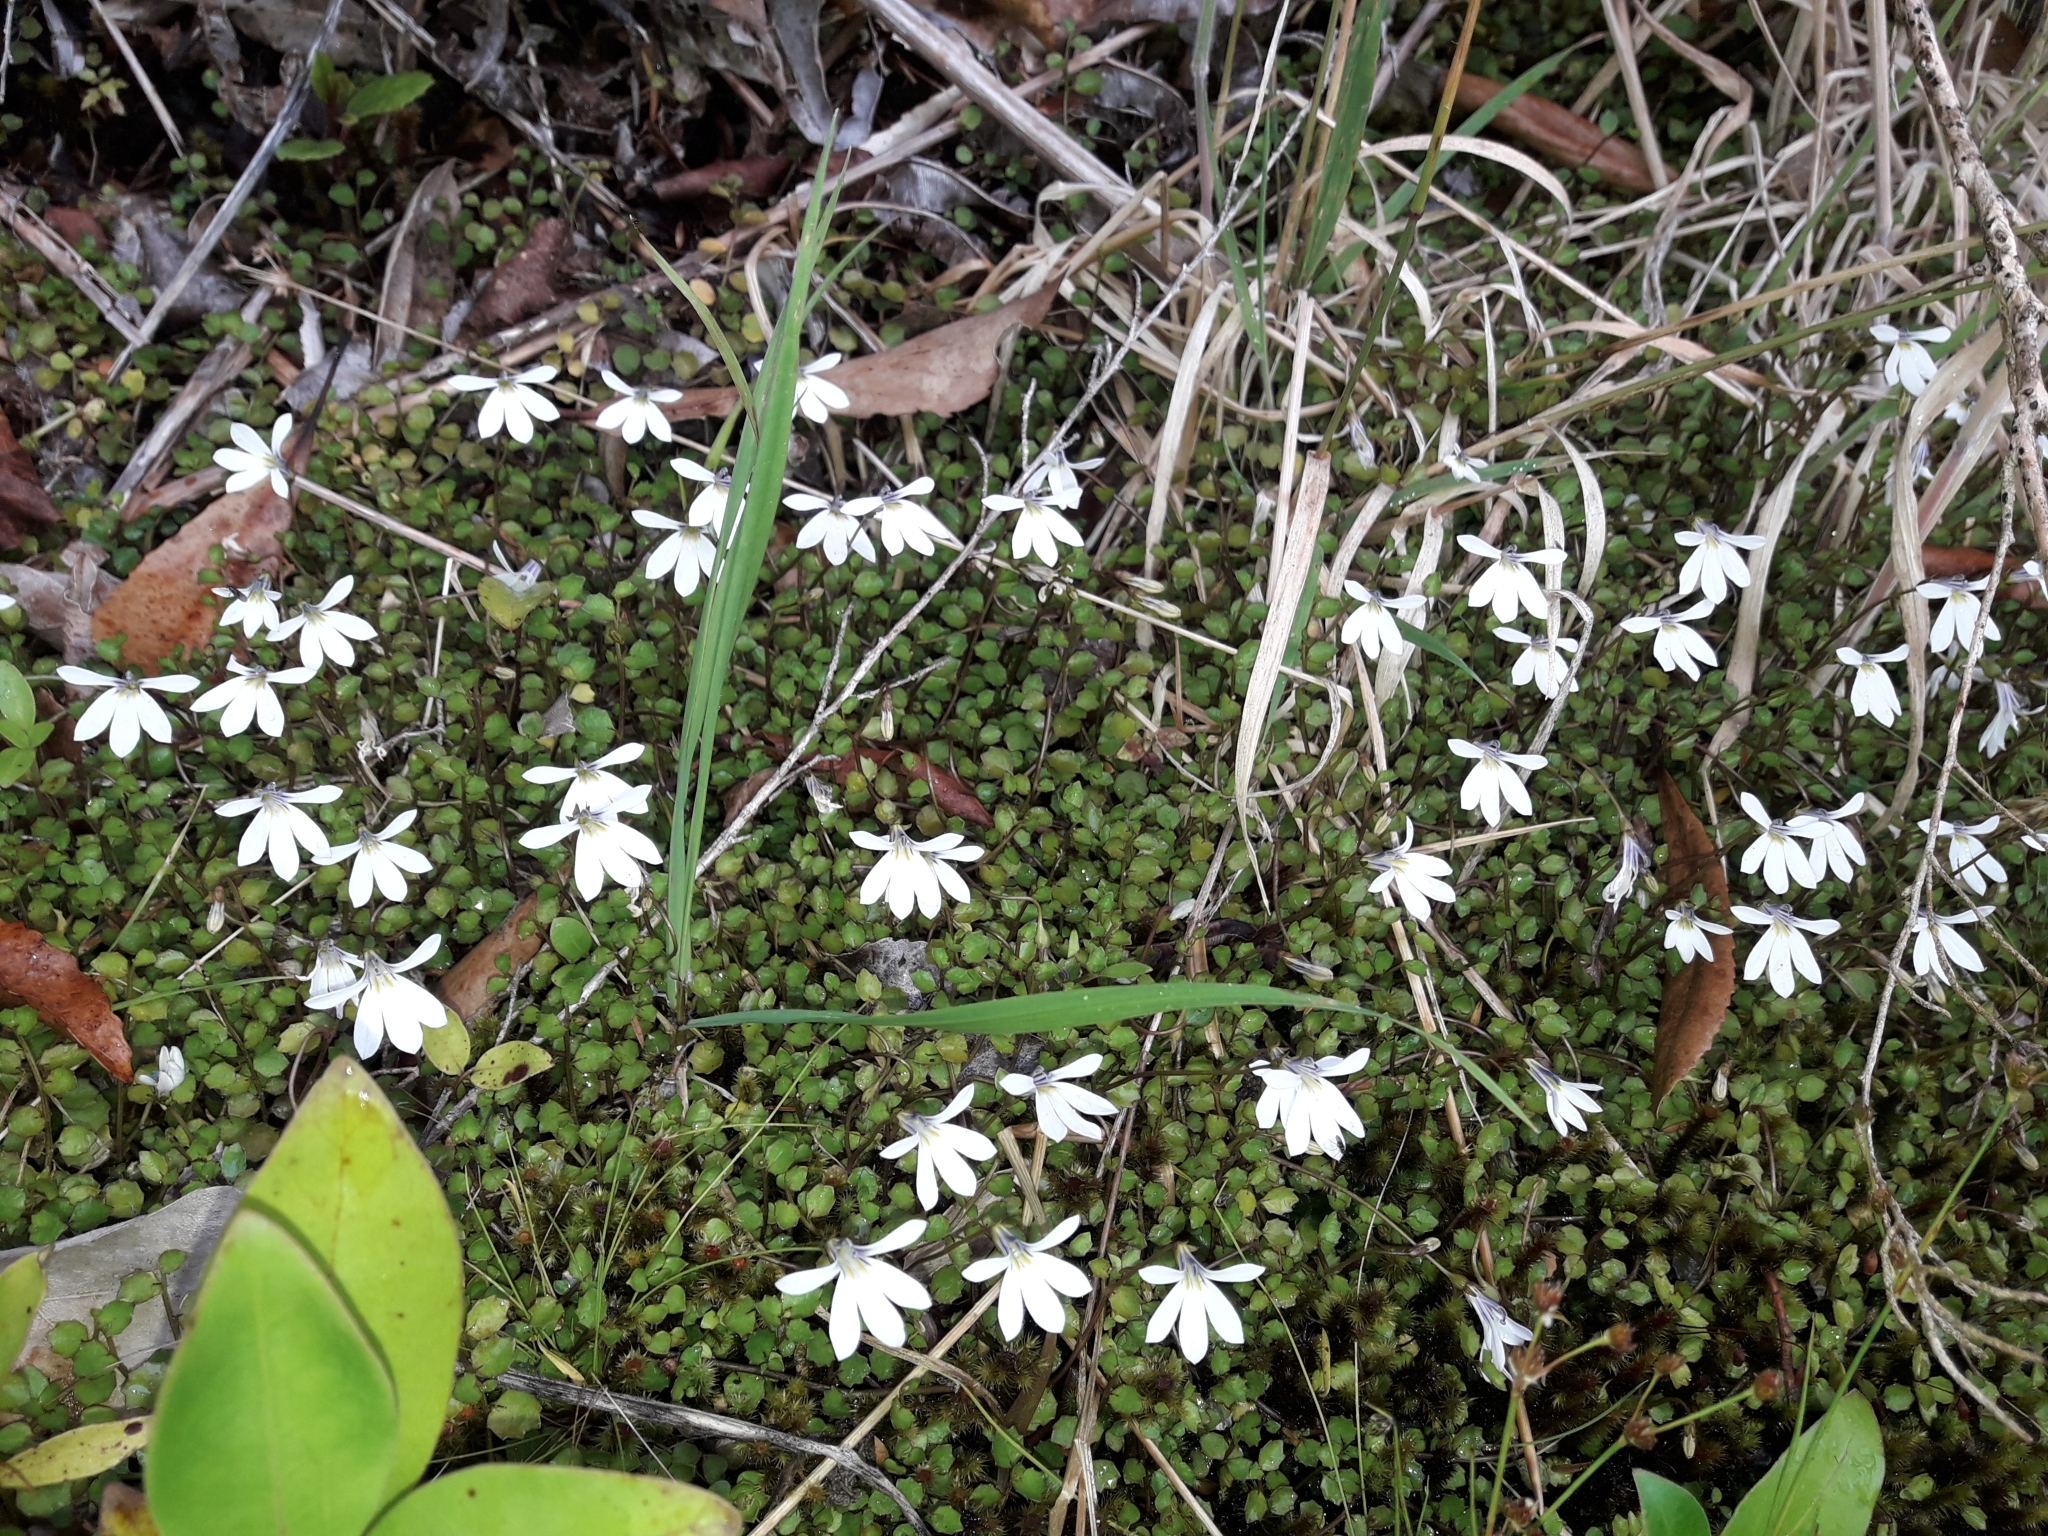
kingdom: Plantae
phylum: Tracheophyta
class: Magnoliopsida
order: Asterales
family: Campanulaceae
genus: Lobelia
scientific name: Lobelia angulata
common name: Lawn lobelia
